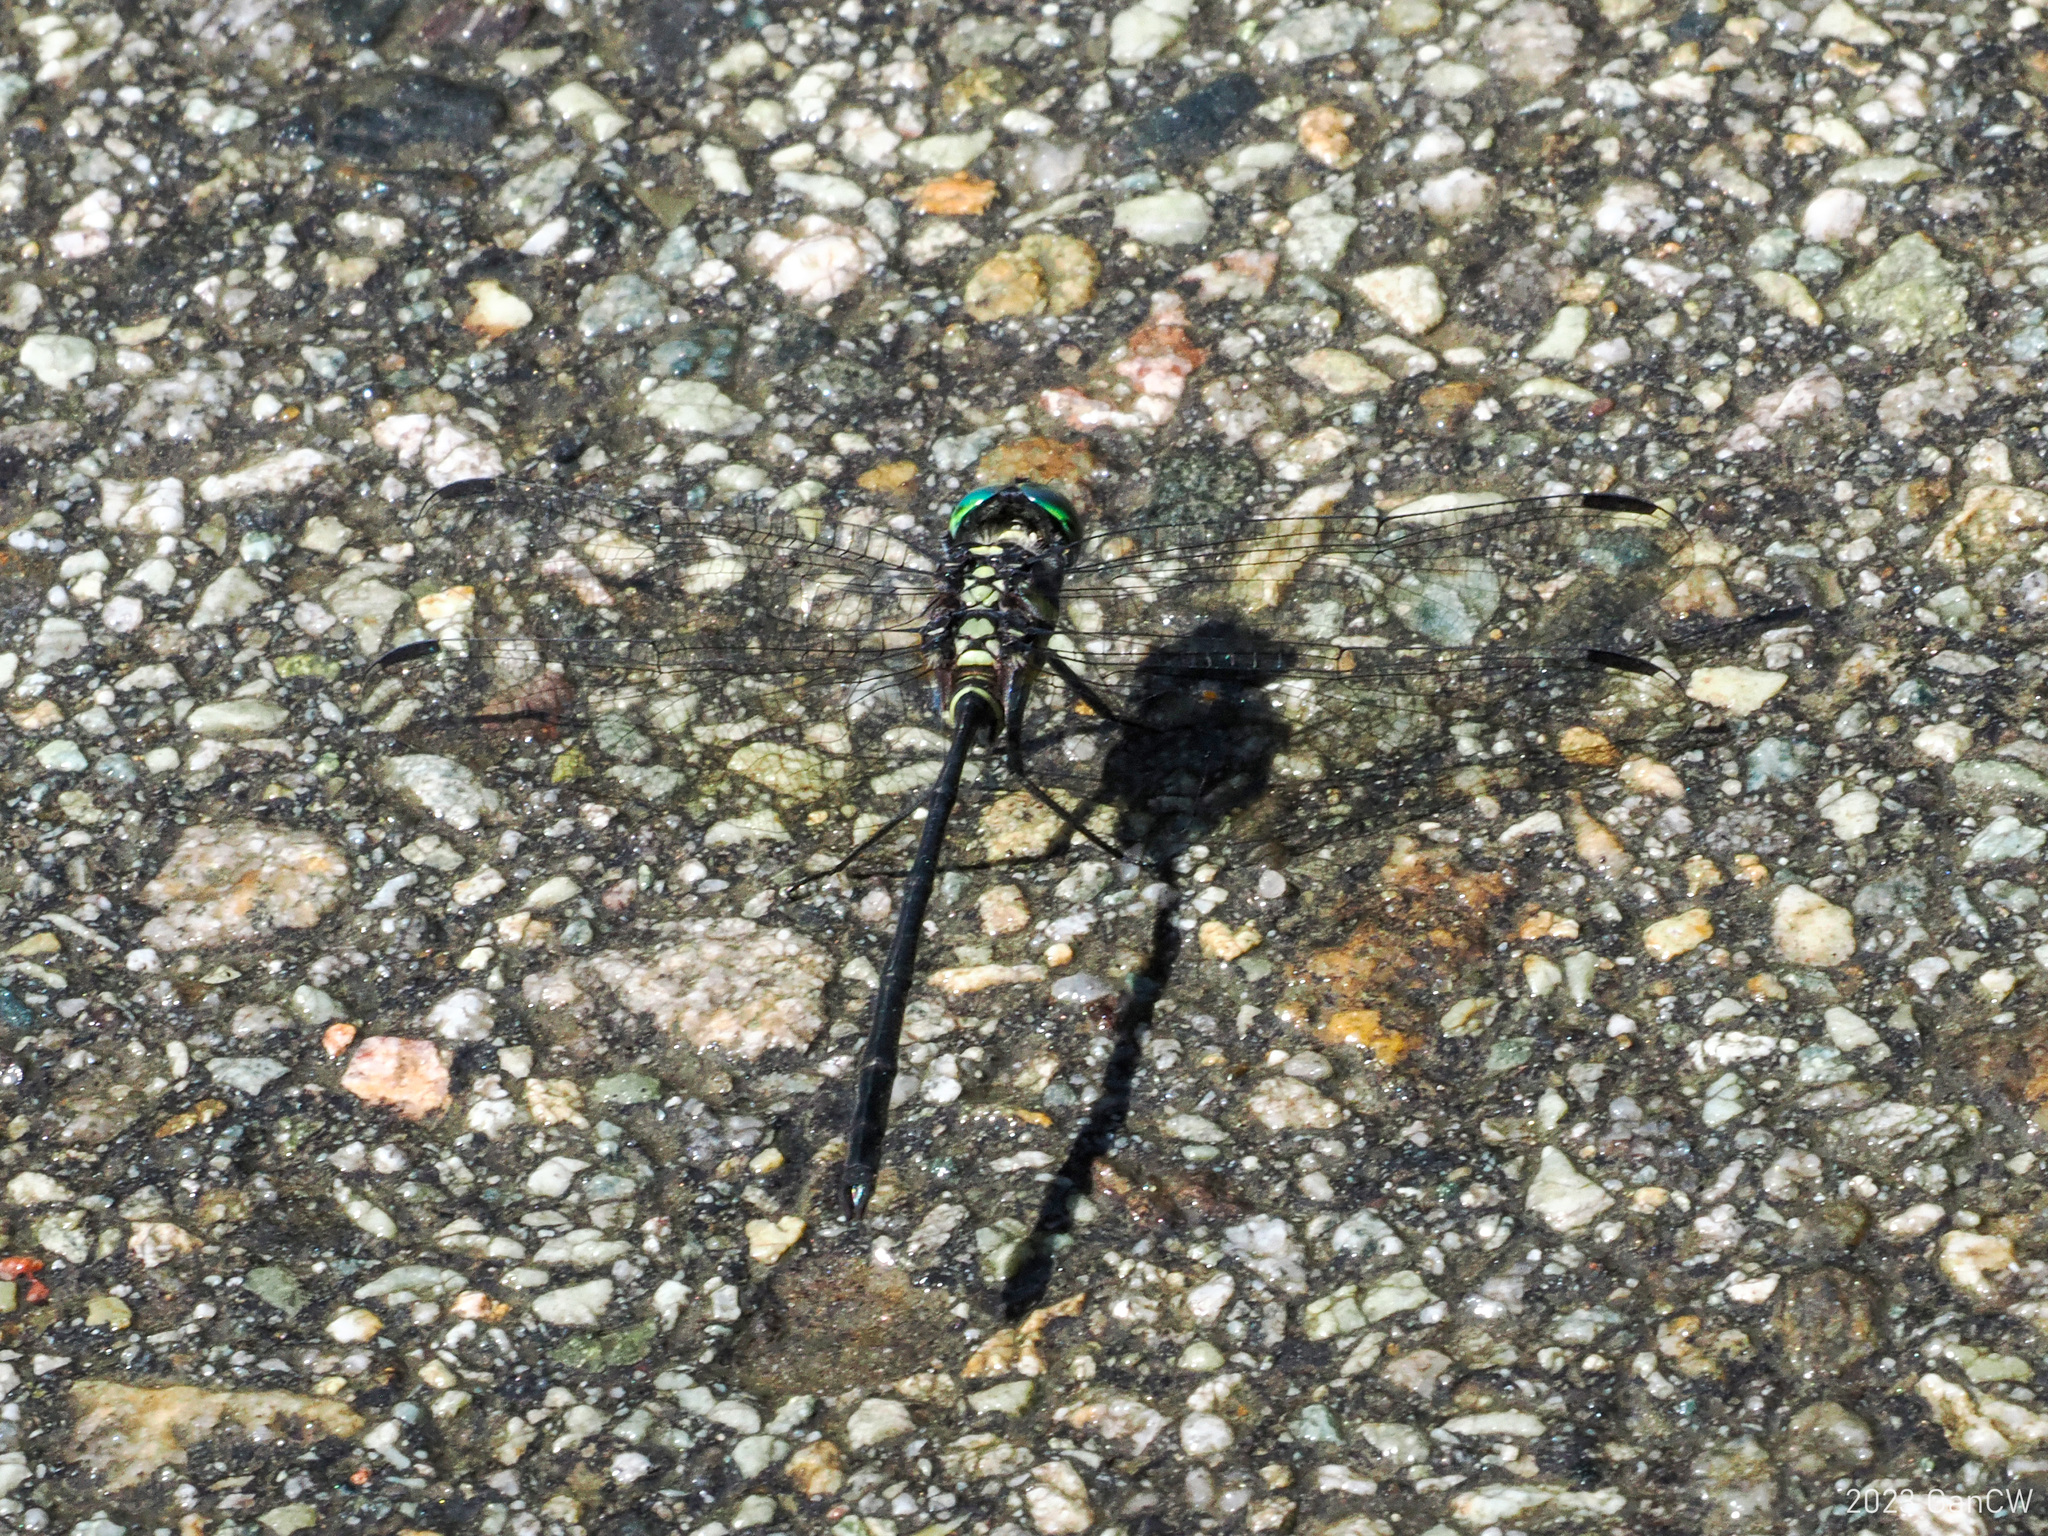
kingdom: Animalia
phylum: Arthropoda
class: Insecta
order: Odonata
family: Libellulidae
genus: Celebothemis
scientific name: Celebothemis delecollei
